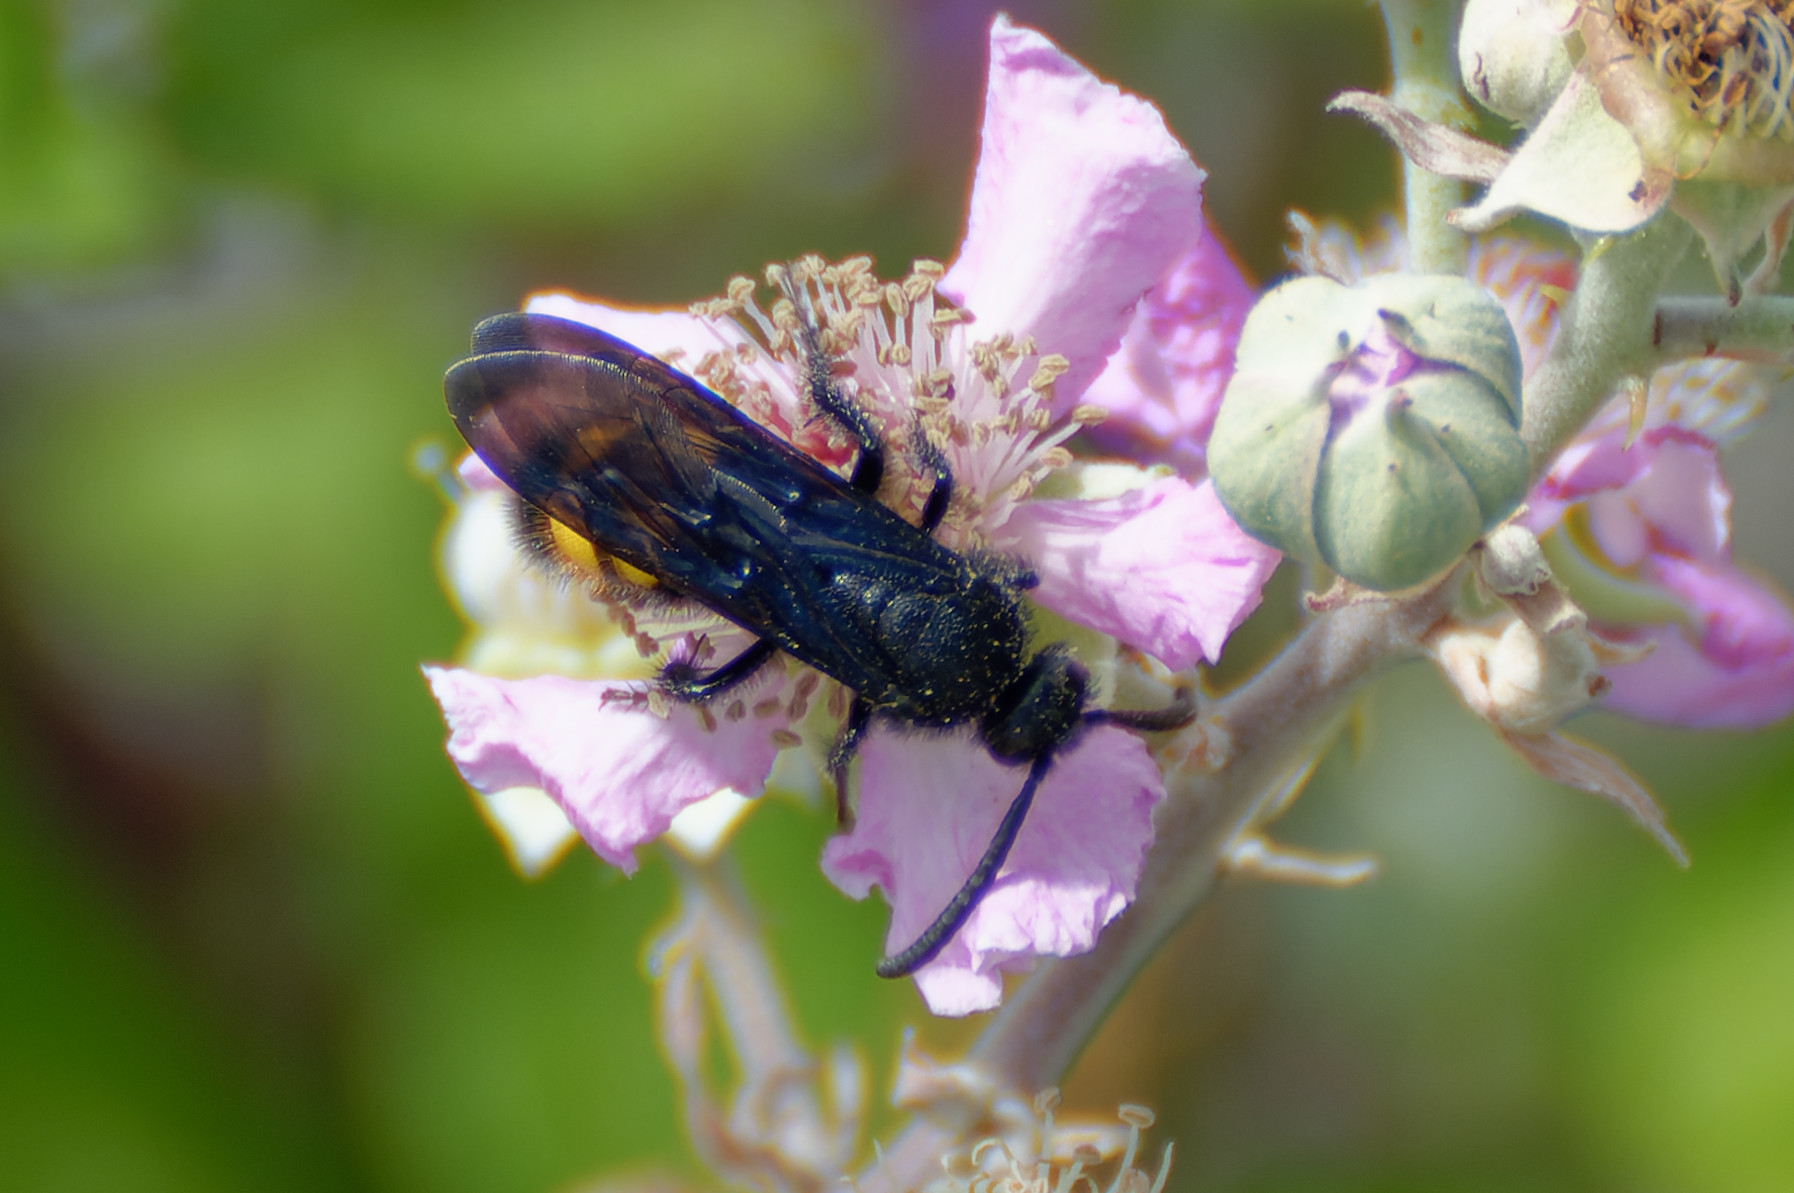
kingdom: Animalia
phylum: Arthropoda
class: Insecta
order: Hymenoptera
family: Scoliidae
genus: Scolia
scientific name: Scolia hirta
